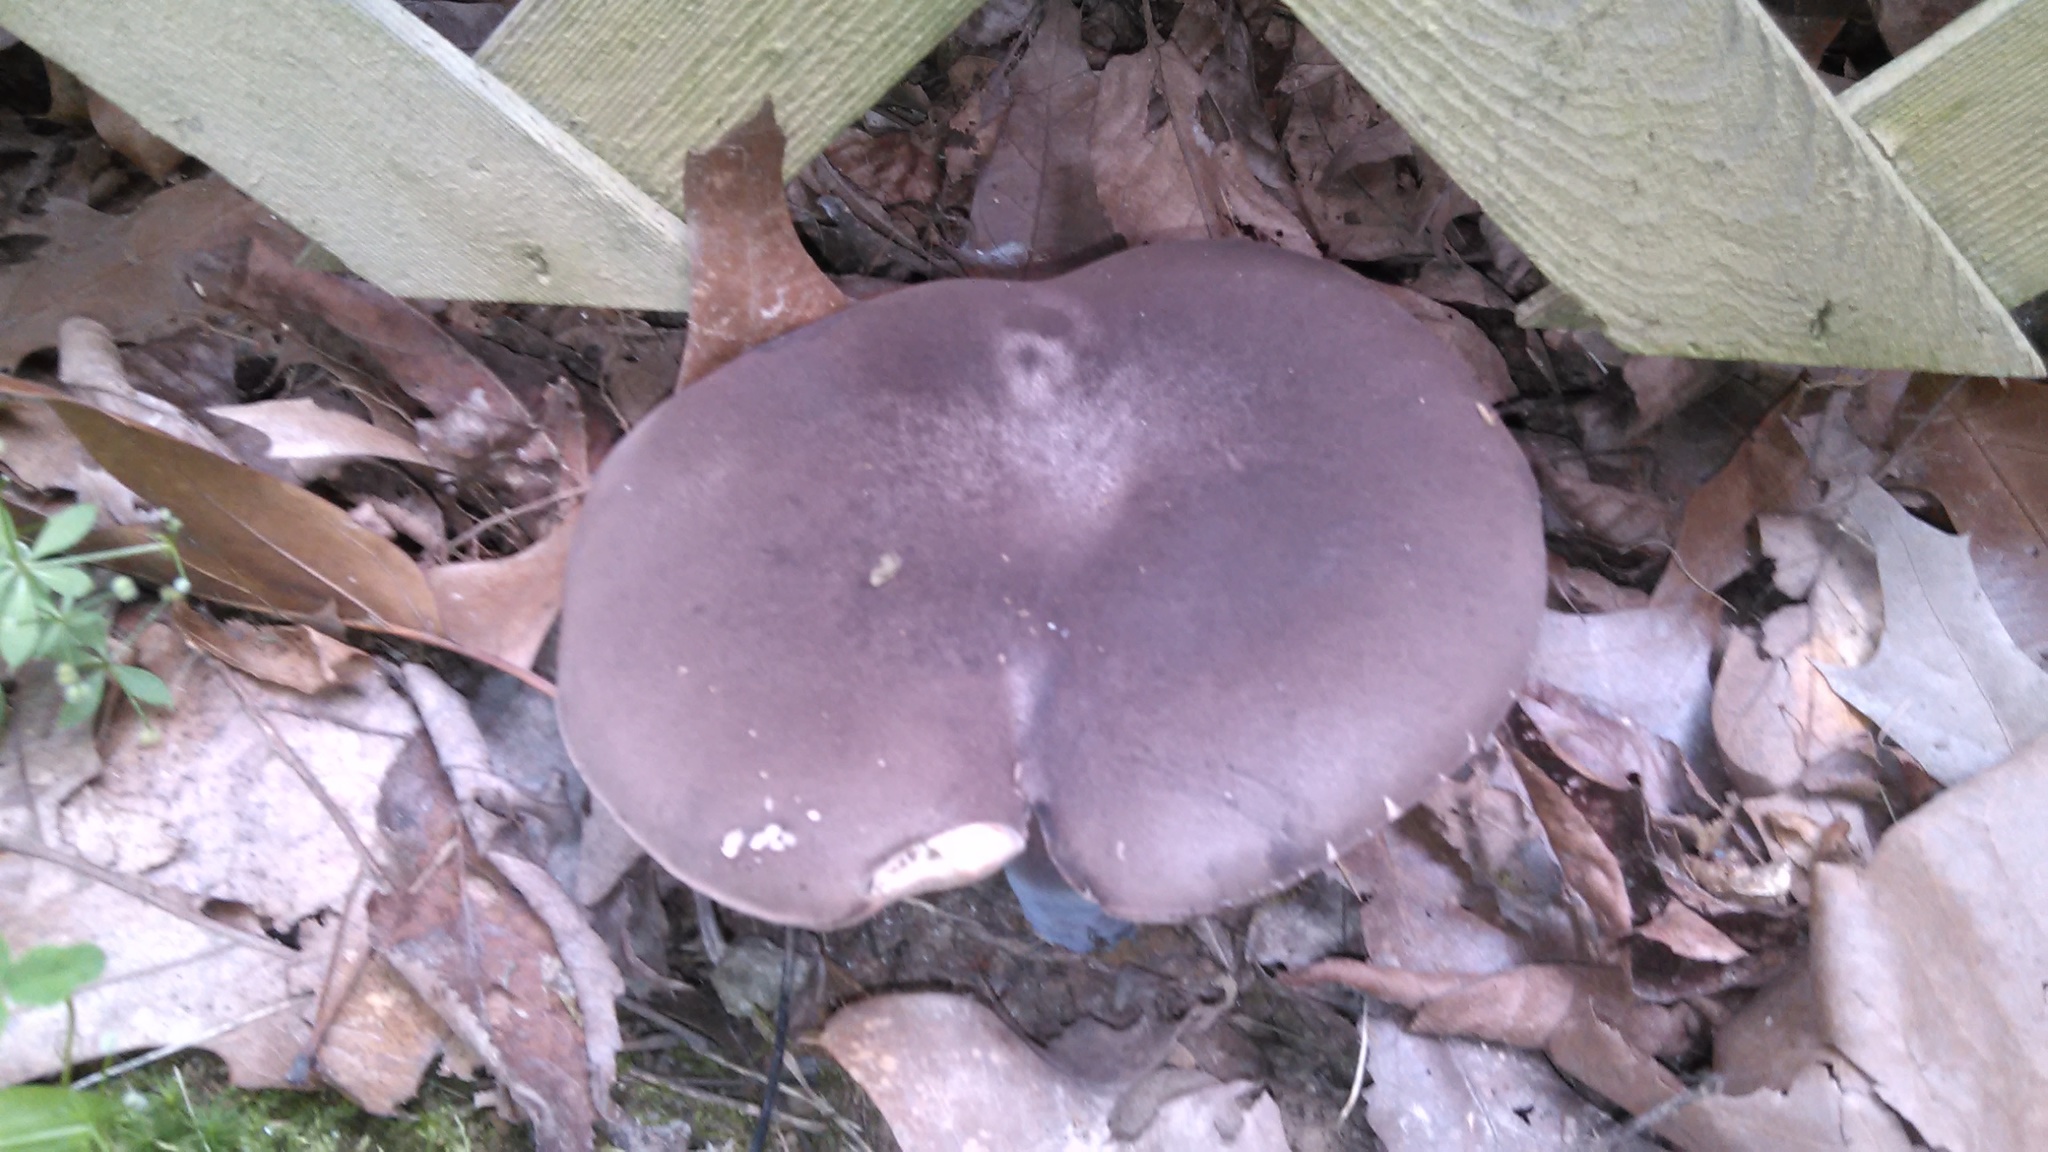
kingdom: Fungi
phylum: Basidiomycota
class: Agaricomycetes
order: Boletales
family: Boletaceae
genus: Tylopilus
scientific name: Tylopilus alboater
